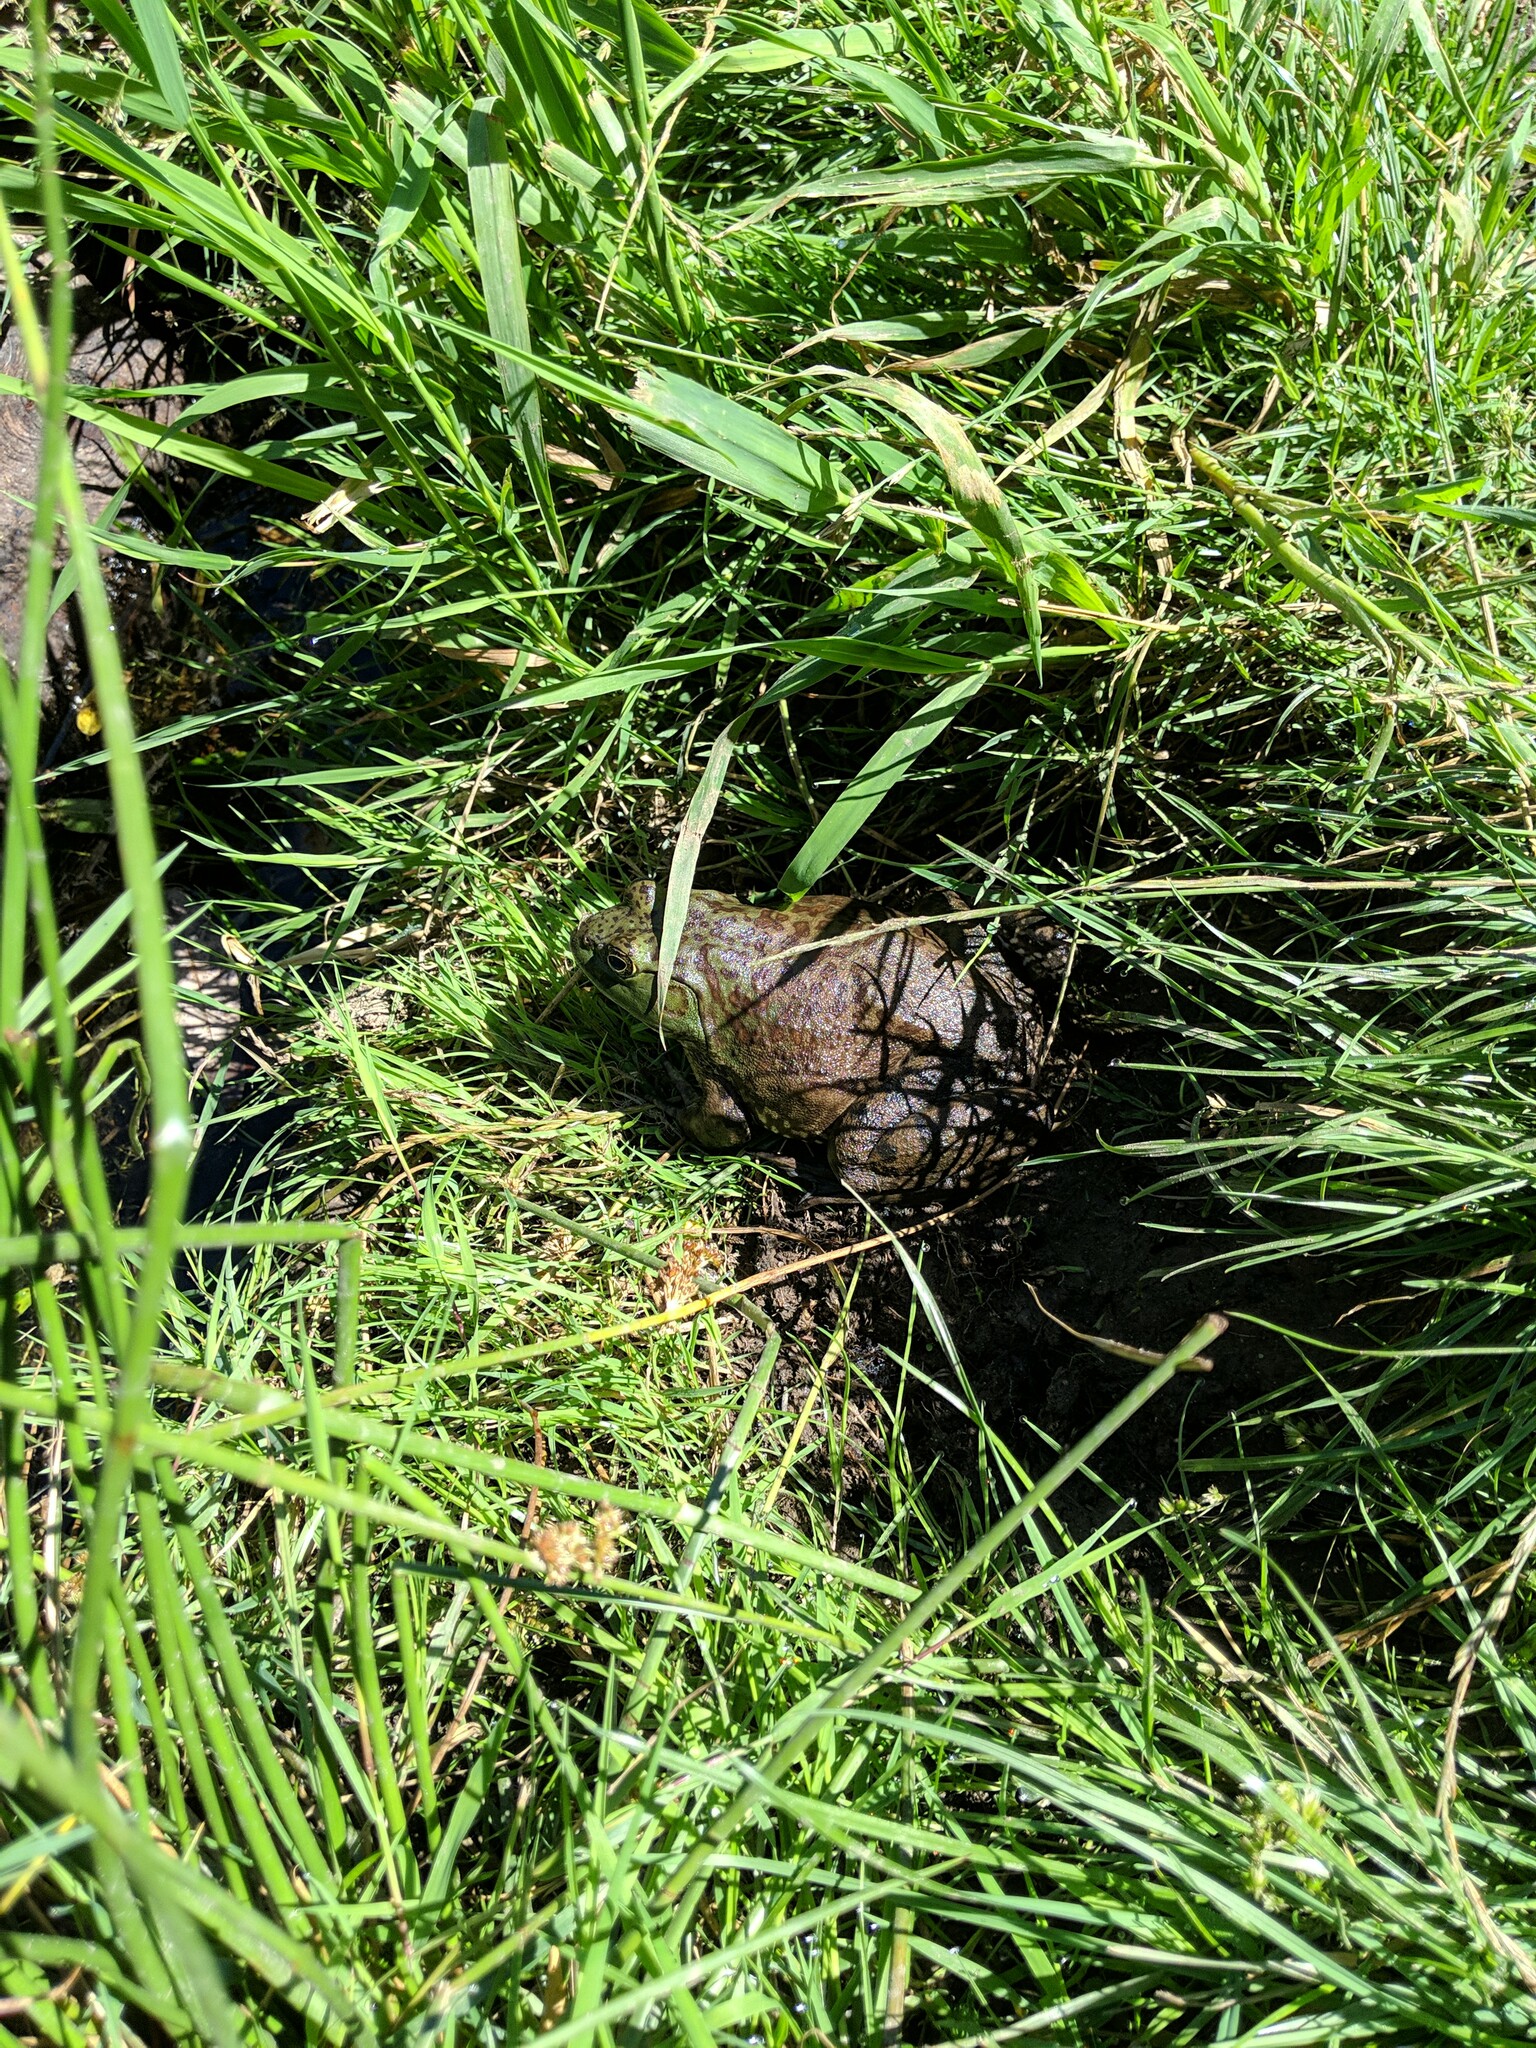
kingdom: Animalia
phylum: Chordata
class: Amphibia
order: Anura
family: Ranidae
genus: Lithobates
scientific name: Lithobates catesbeianus
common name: American bullfrog
